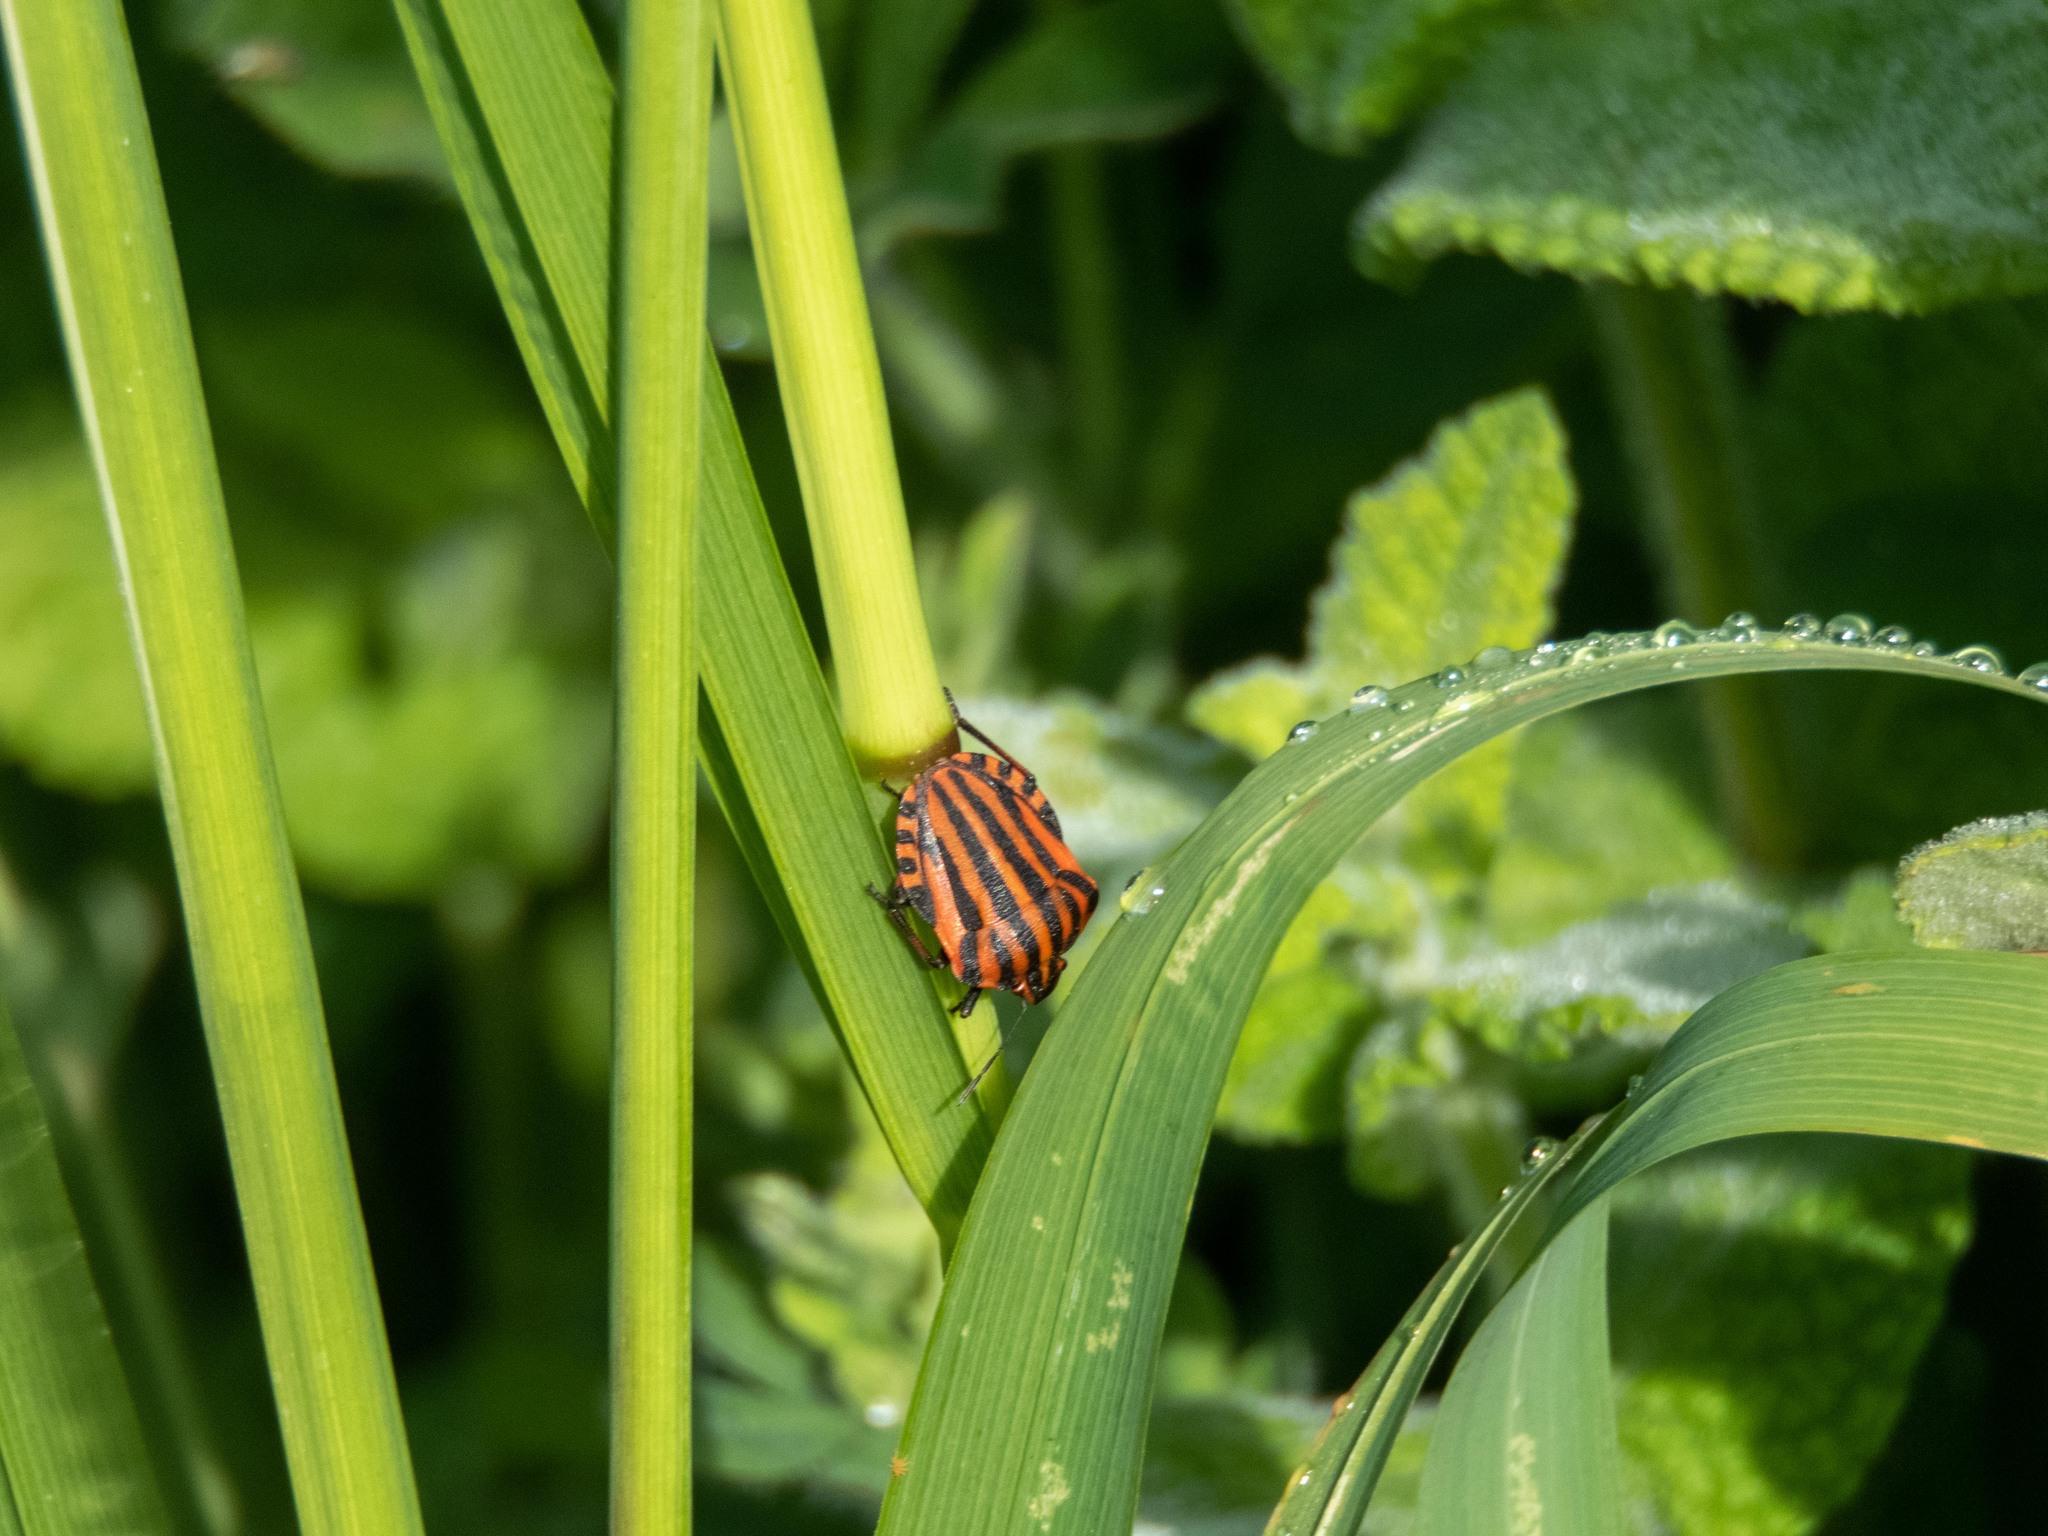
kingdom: Animalia
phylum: Arthropoda
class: Insecta
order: Hemiptera
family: Pentatomidae
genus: Graphosoma
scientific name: Graphosoma italicum
